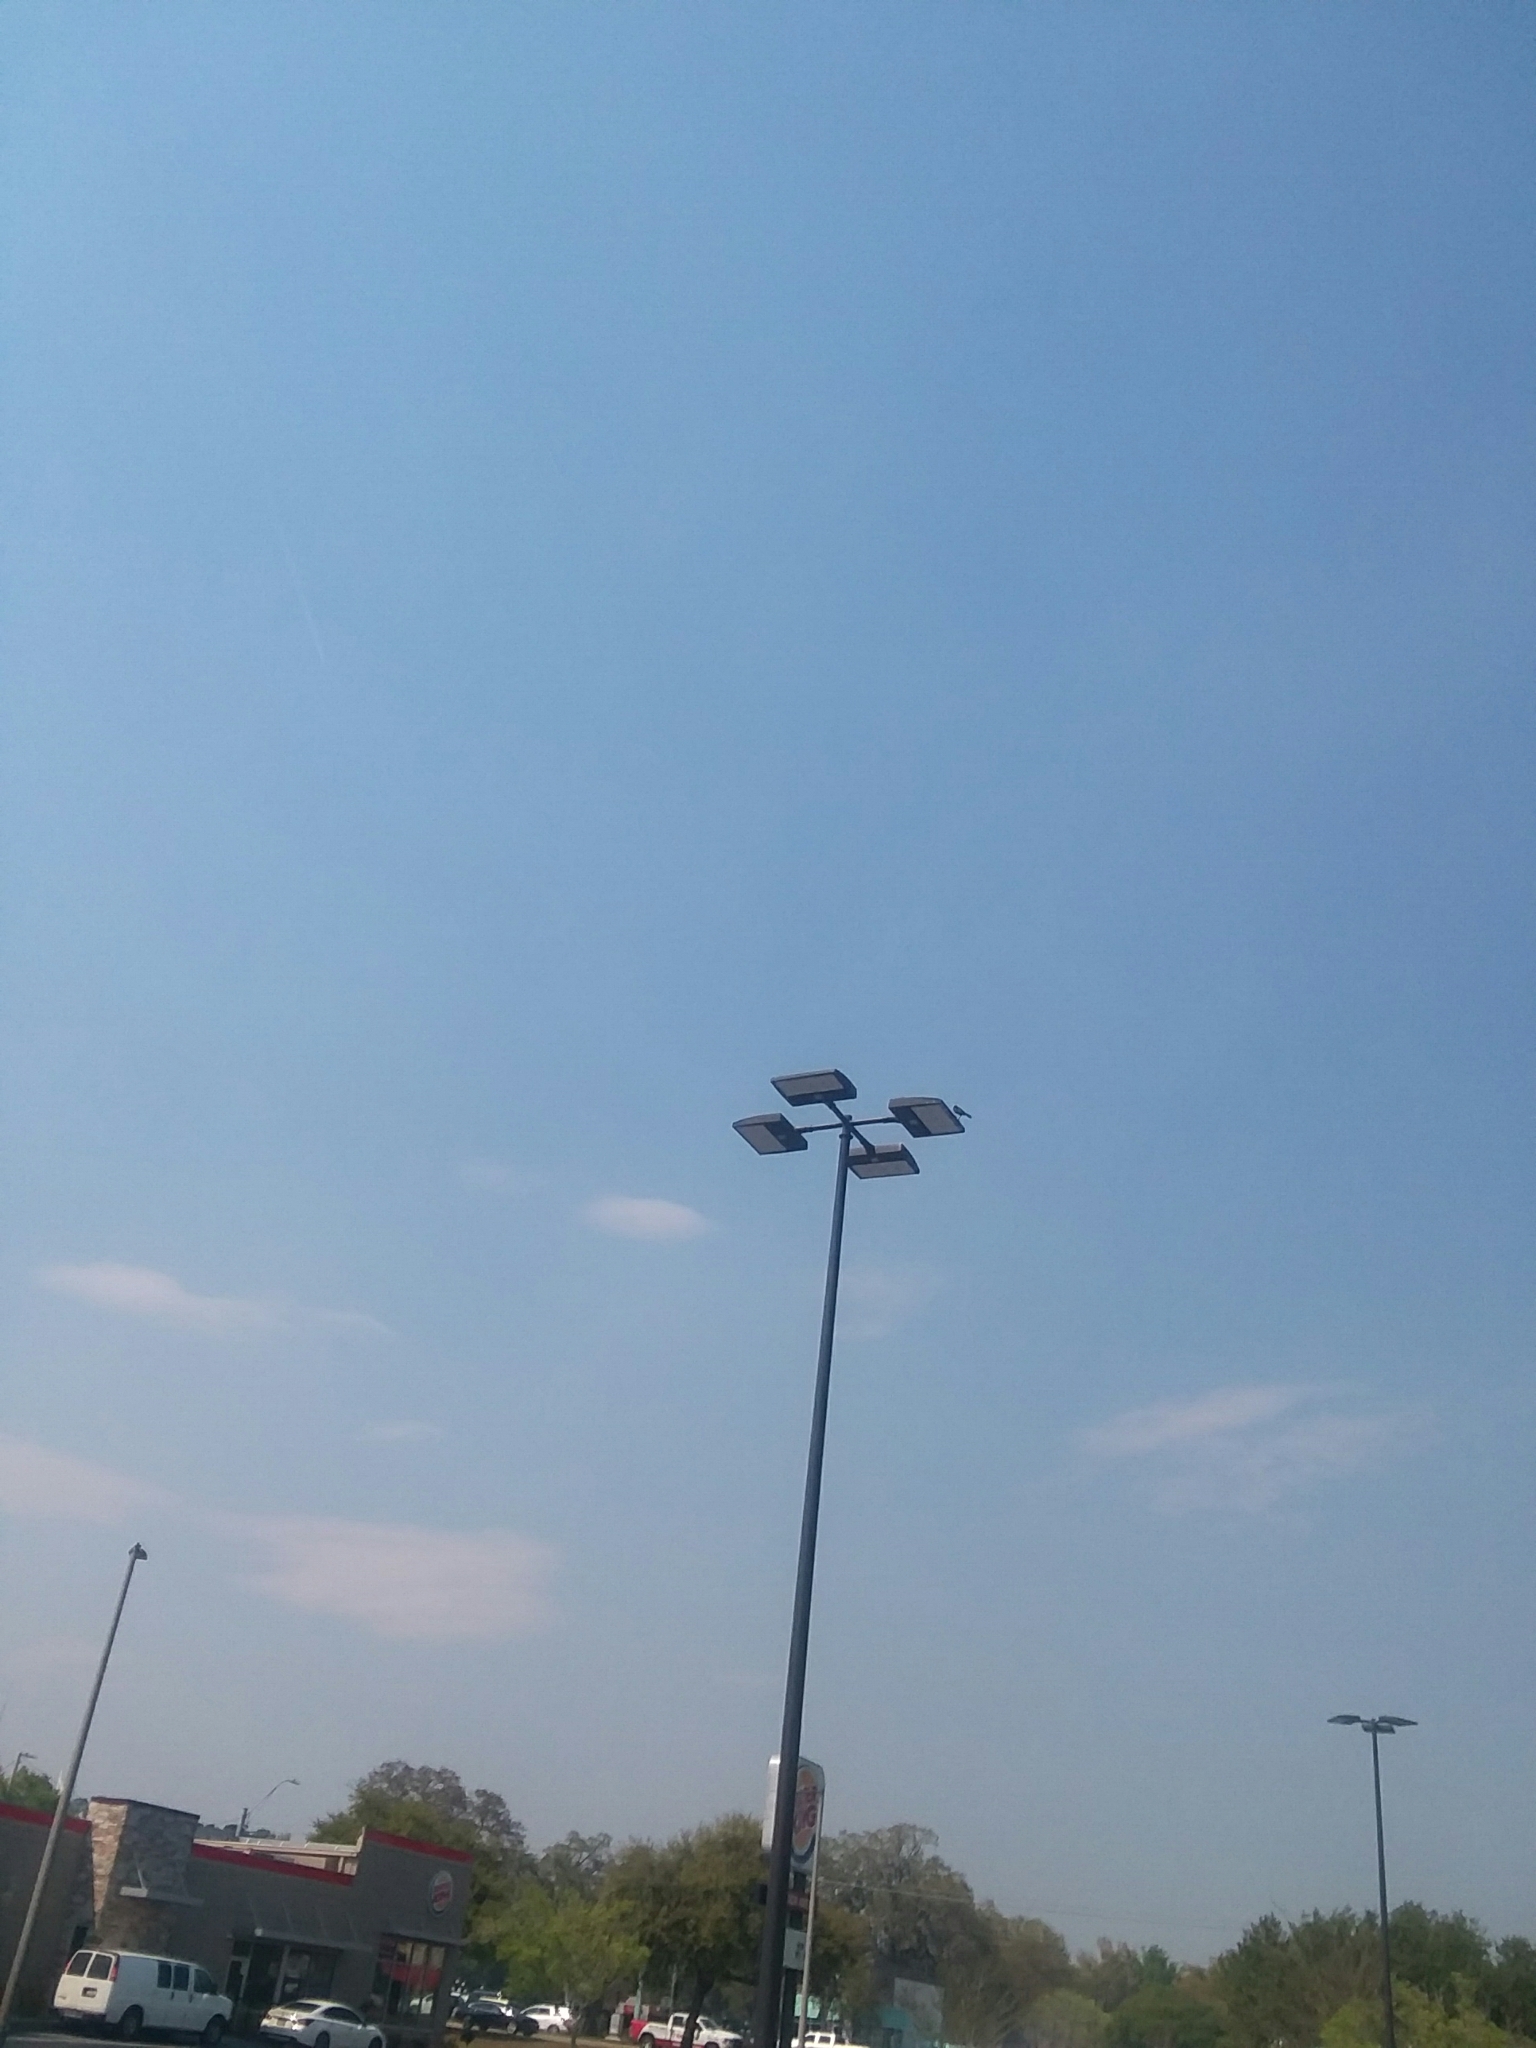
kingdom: Animalia
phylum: Chordata
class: Aves
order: Passeriformes
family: Icteridae
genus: Quiscalus
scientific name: Quiscalus major
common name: Boat-tailed grackle
